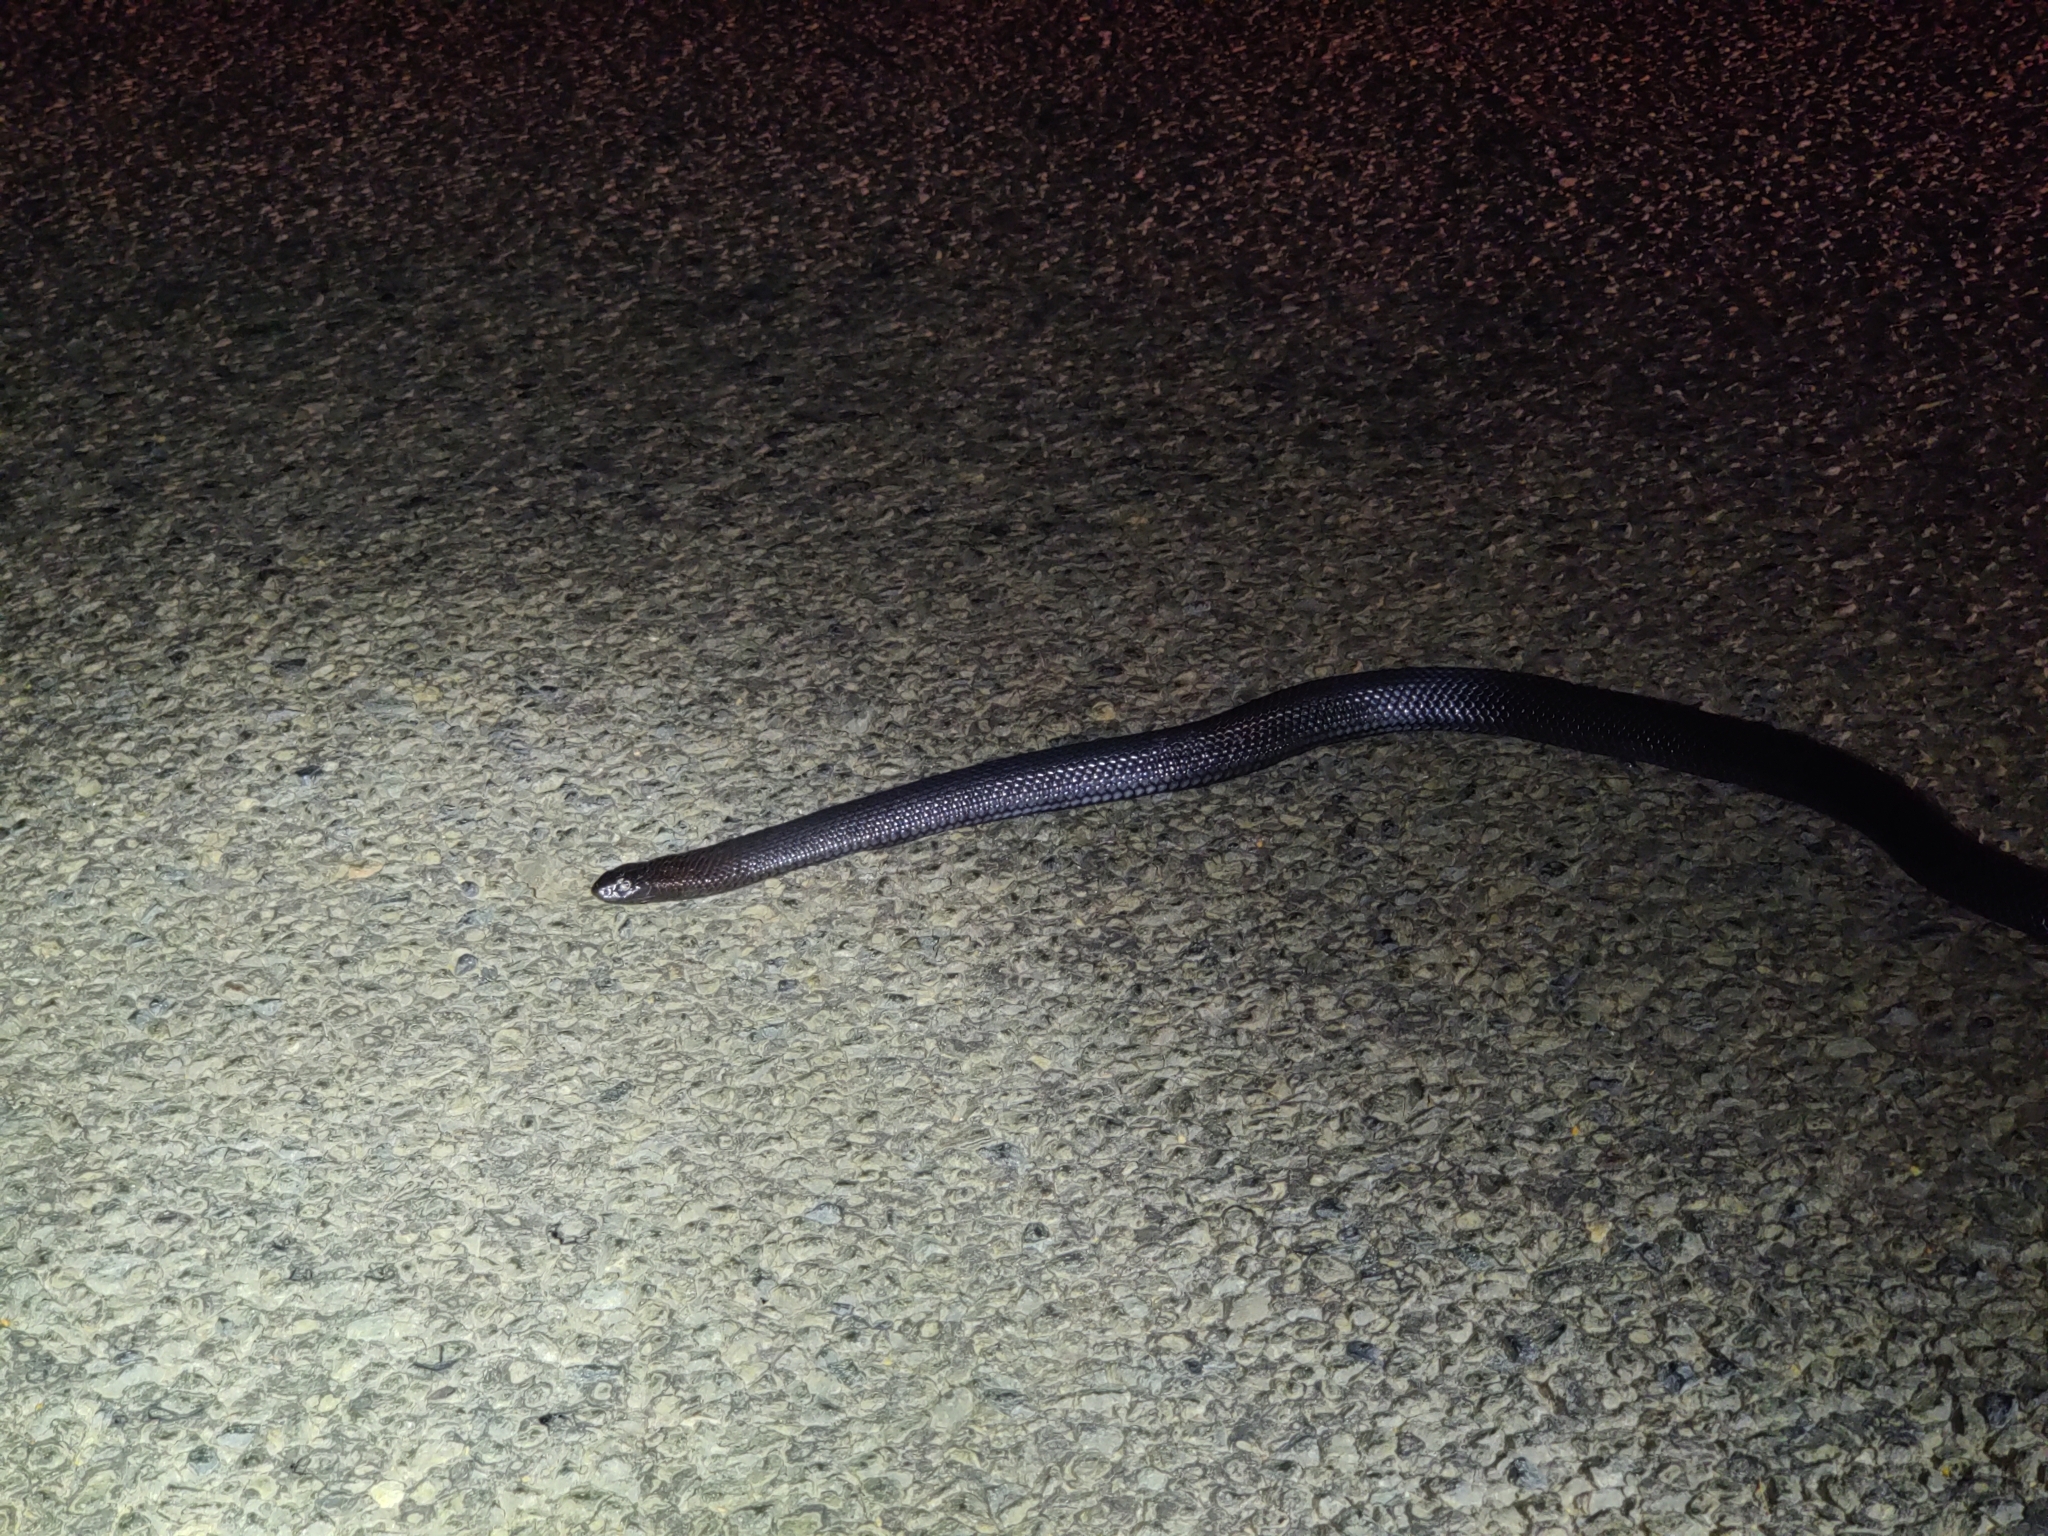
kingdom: Animalia
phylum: Chordata
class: Squamata
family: Elapidae
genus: Pseudechis
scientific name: Pseudechis guttatus
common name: Blue-bellied black snake
